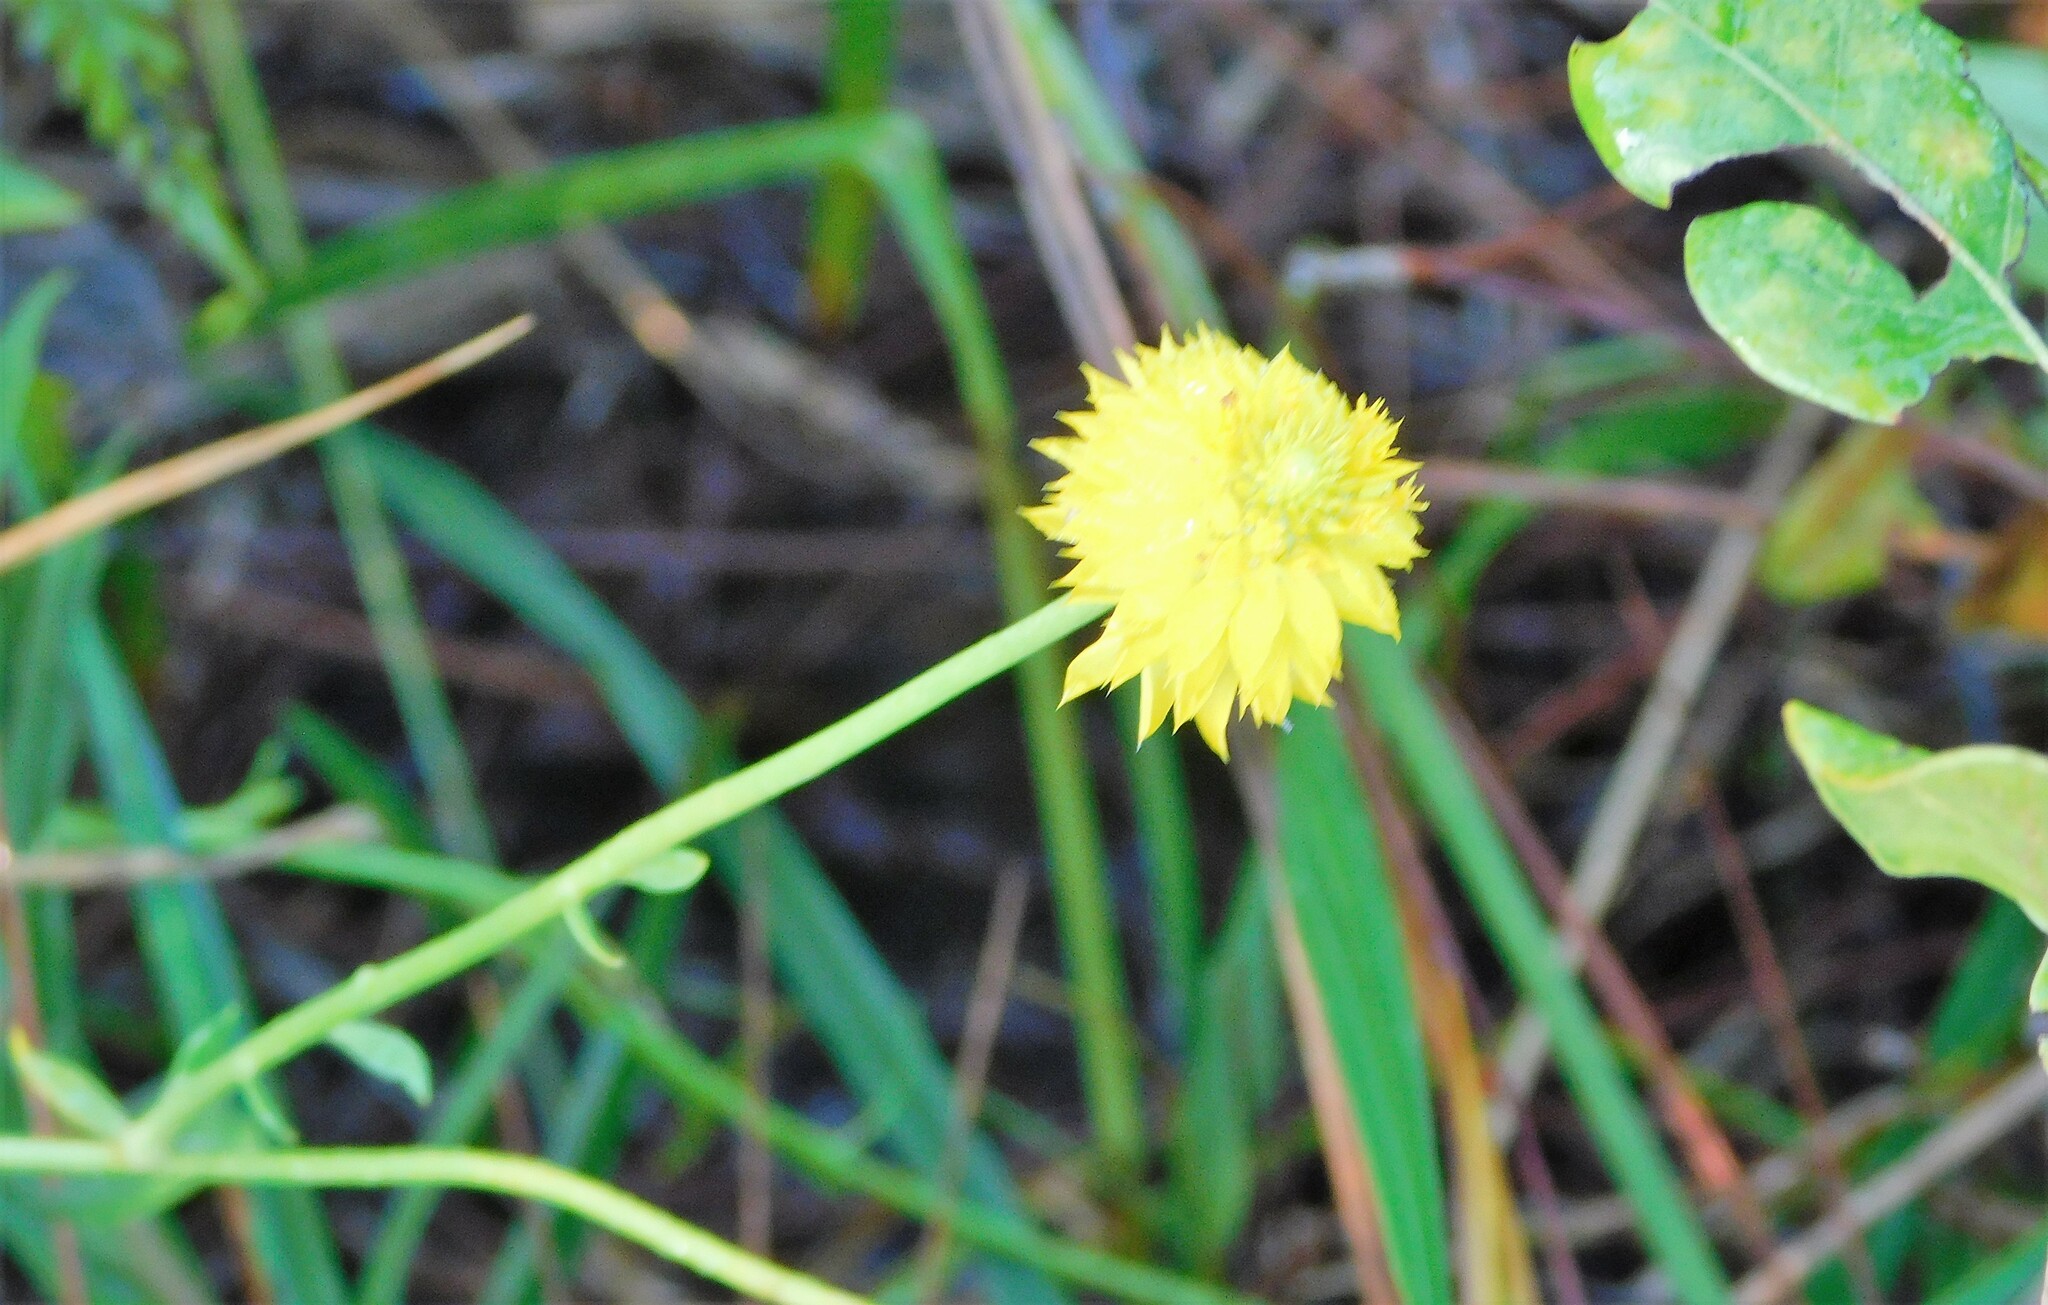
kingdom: Plantae
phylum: Tracheophyta
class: Magnoliopsida
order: Fabales
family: Polygalaceae
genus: Polygala
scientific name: Polygala rugelii
